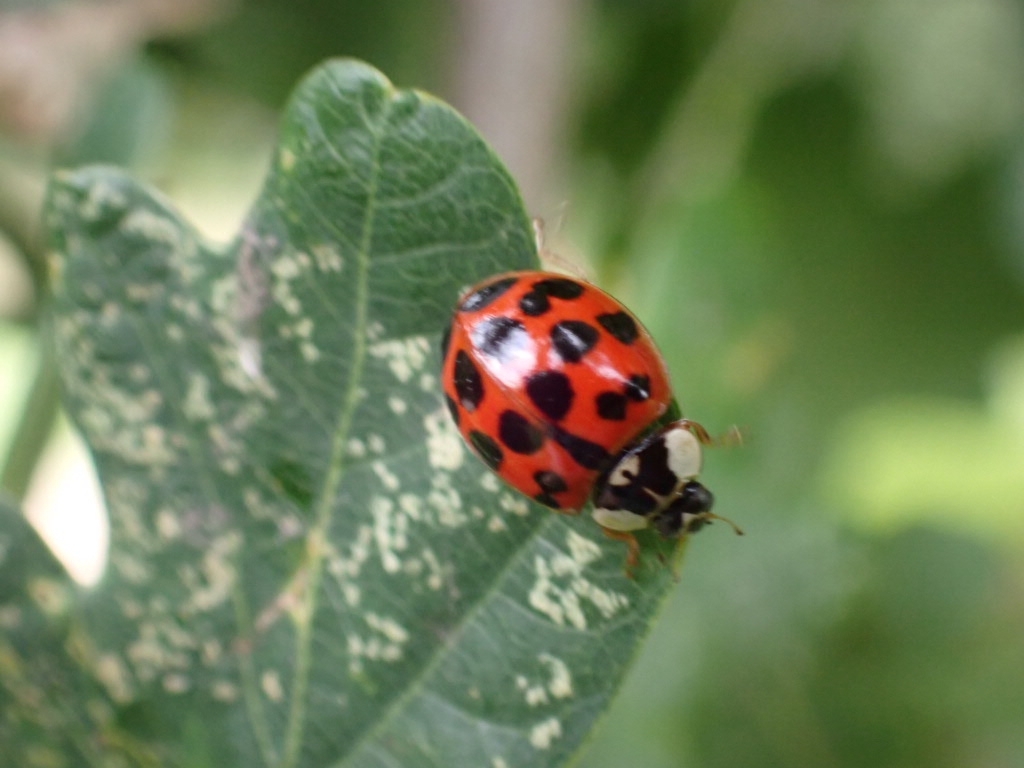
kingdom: Animalia
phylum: Arthropoda
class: Insecta
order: Coleoptera
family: Coccinellidae
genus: Harmonia
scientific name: Harmonia axyridis
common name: Harlequin ladybird
